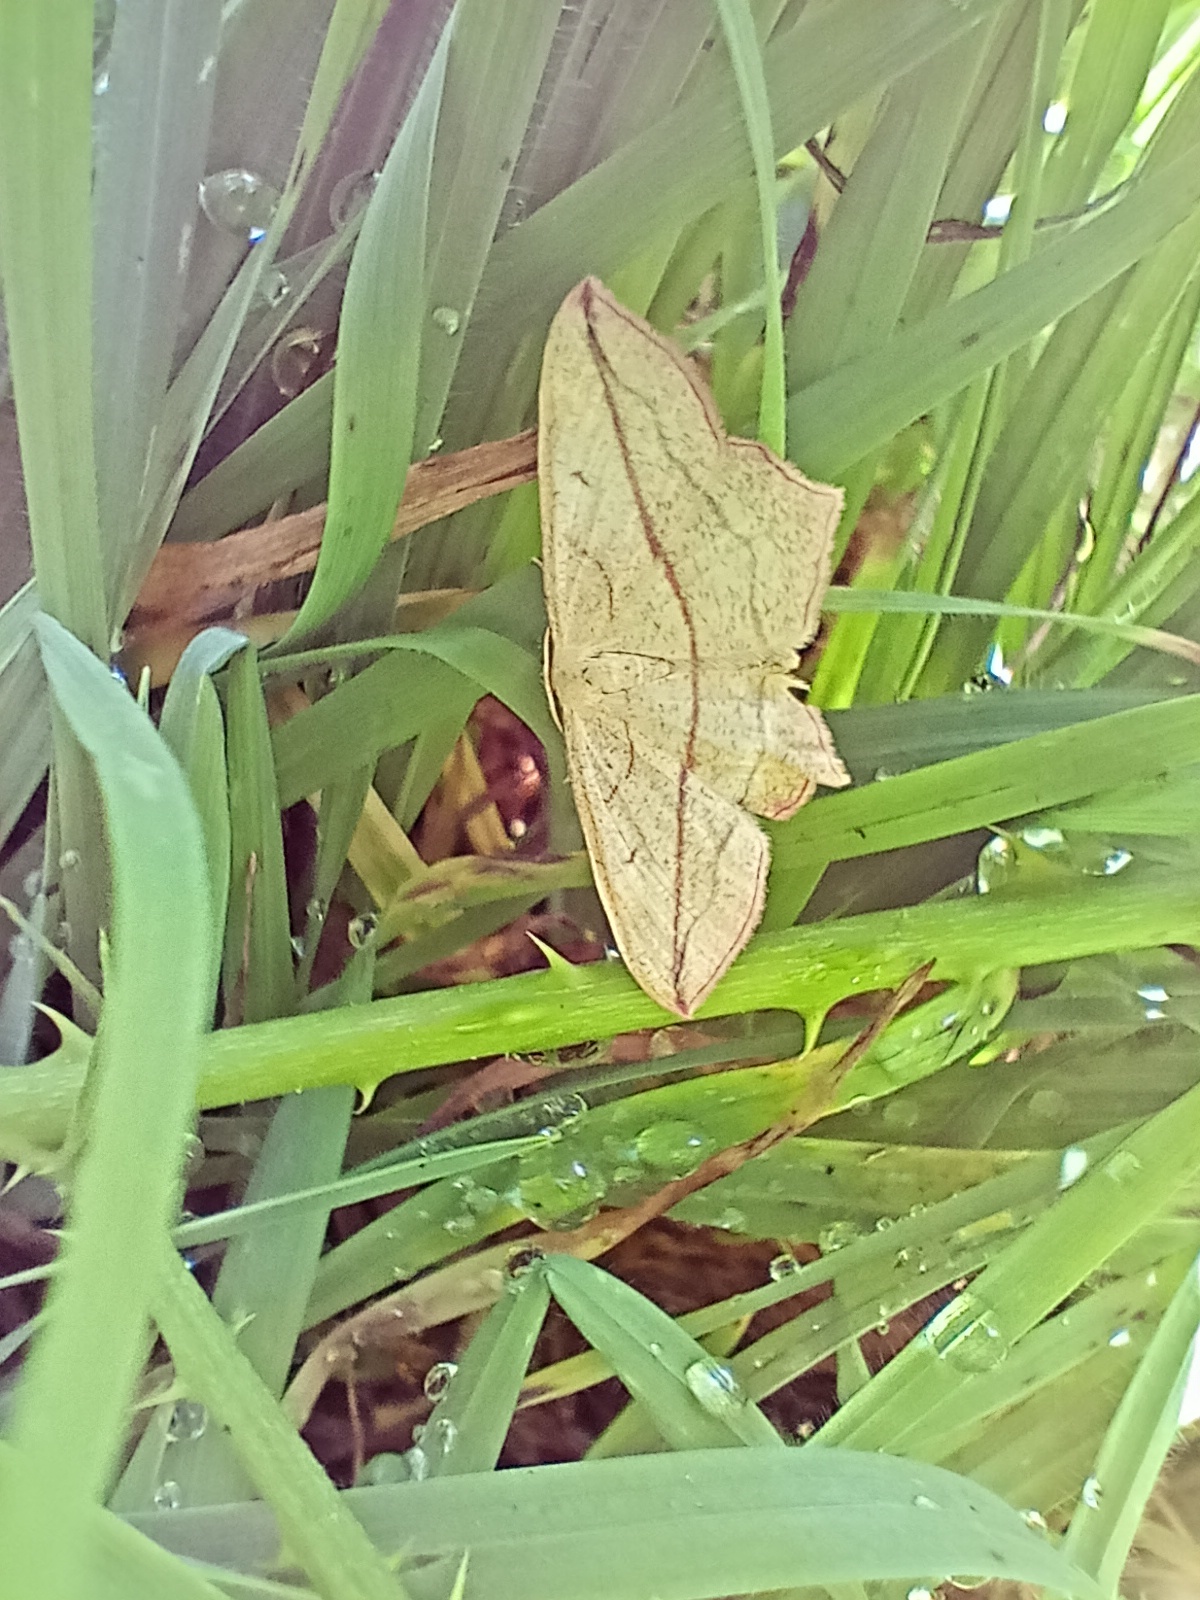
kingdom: Animalia
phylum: Arthropoda
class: Insecta
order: Lepidoptera
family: Geometridae
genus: Timandra
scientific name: Timandra comae
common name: Blood-vein
